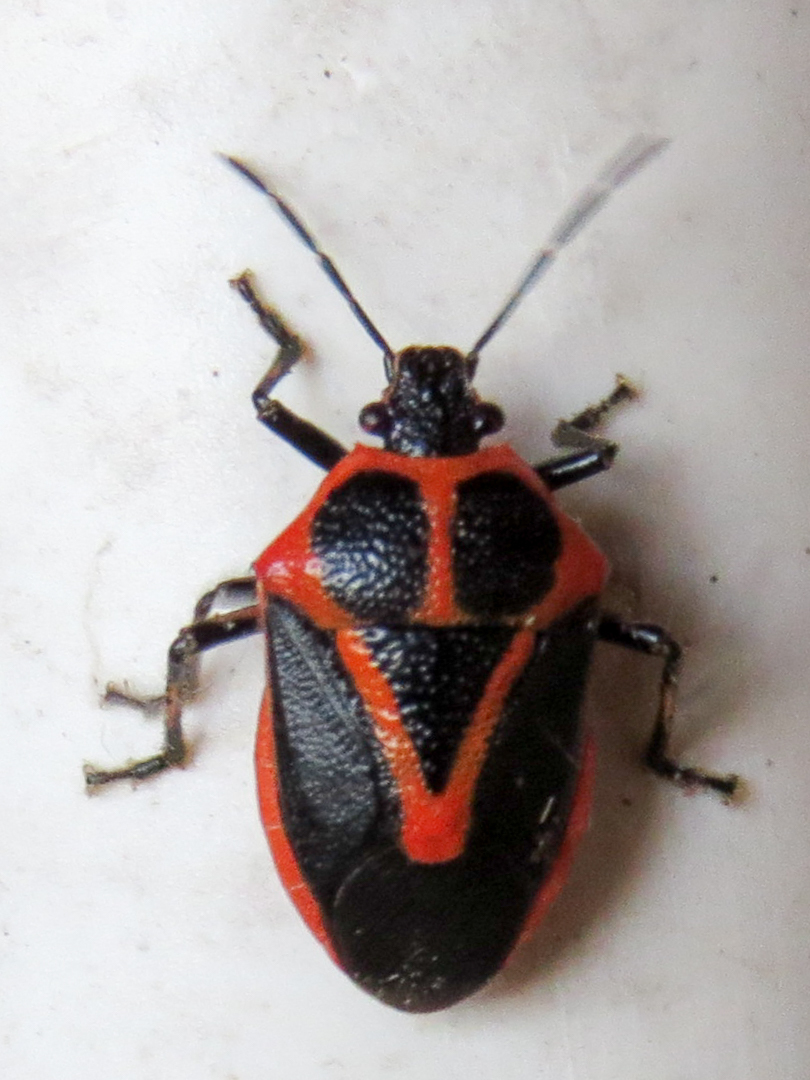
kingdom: Animalia
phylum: Arthropoda
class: Insecta
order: Hemiptera
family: Pentatomidae
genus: Perillus
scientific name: Perillus strigipes
